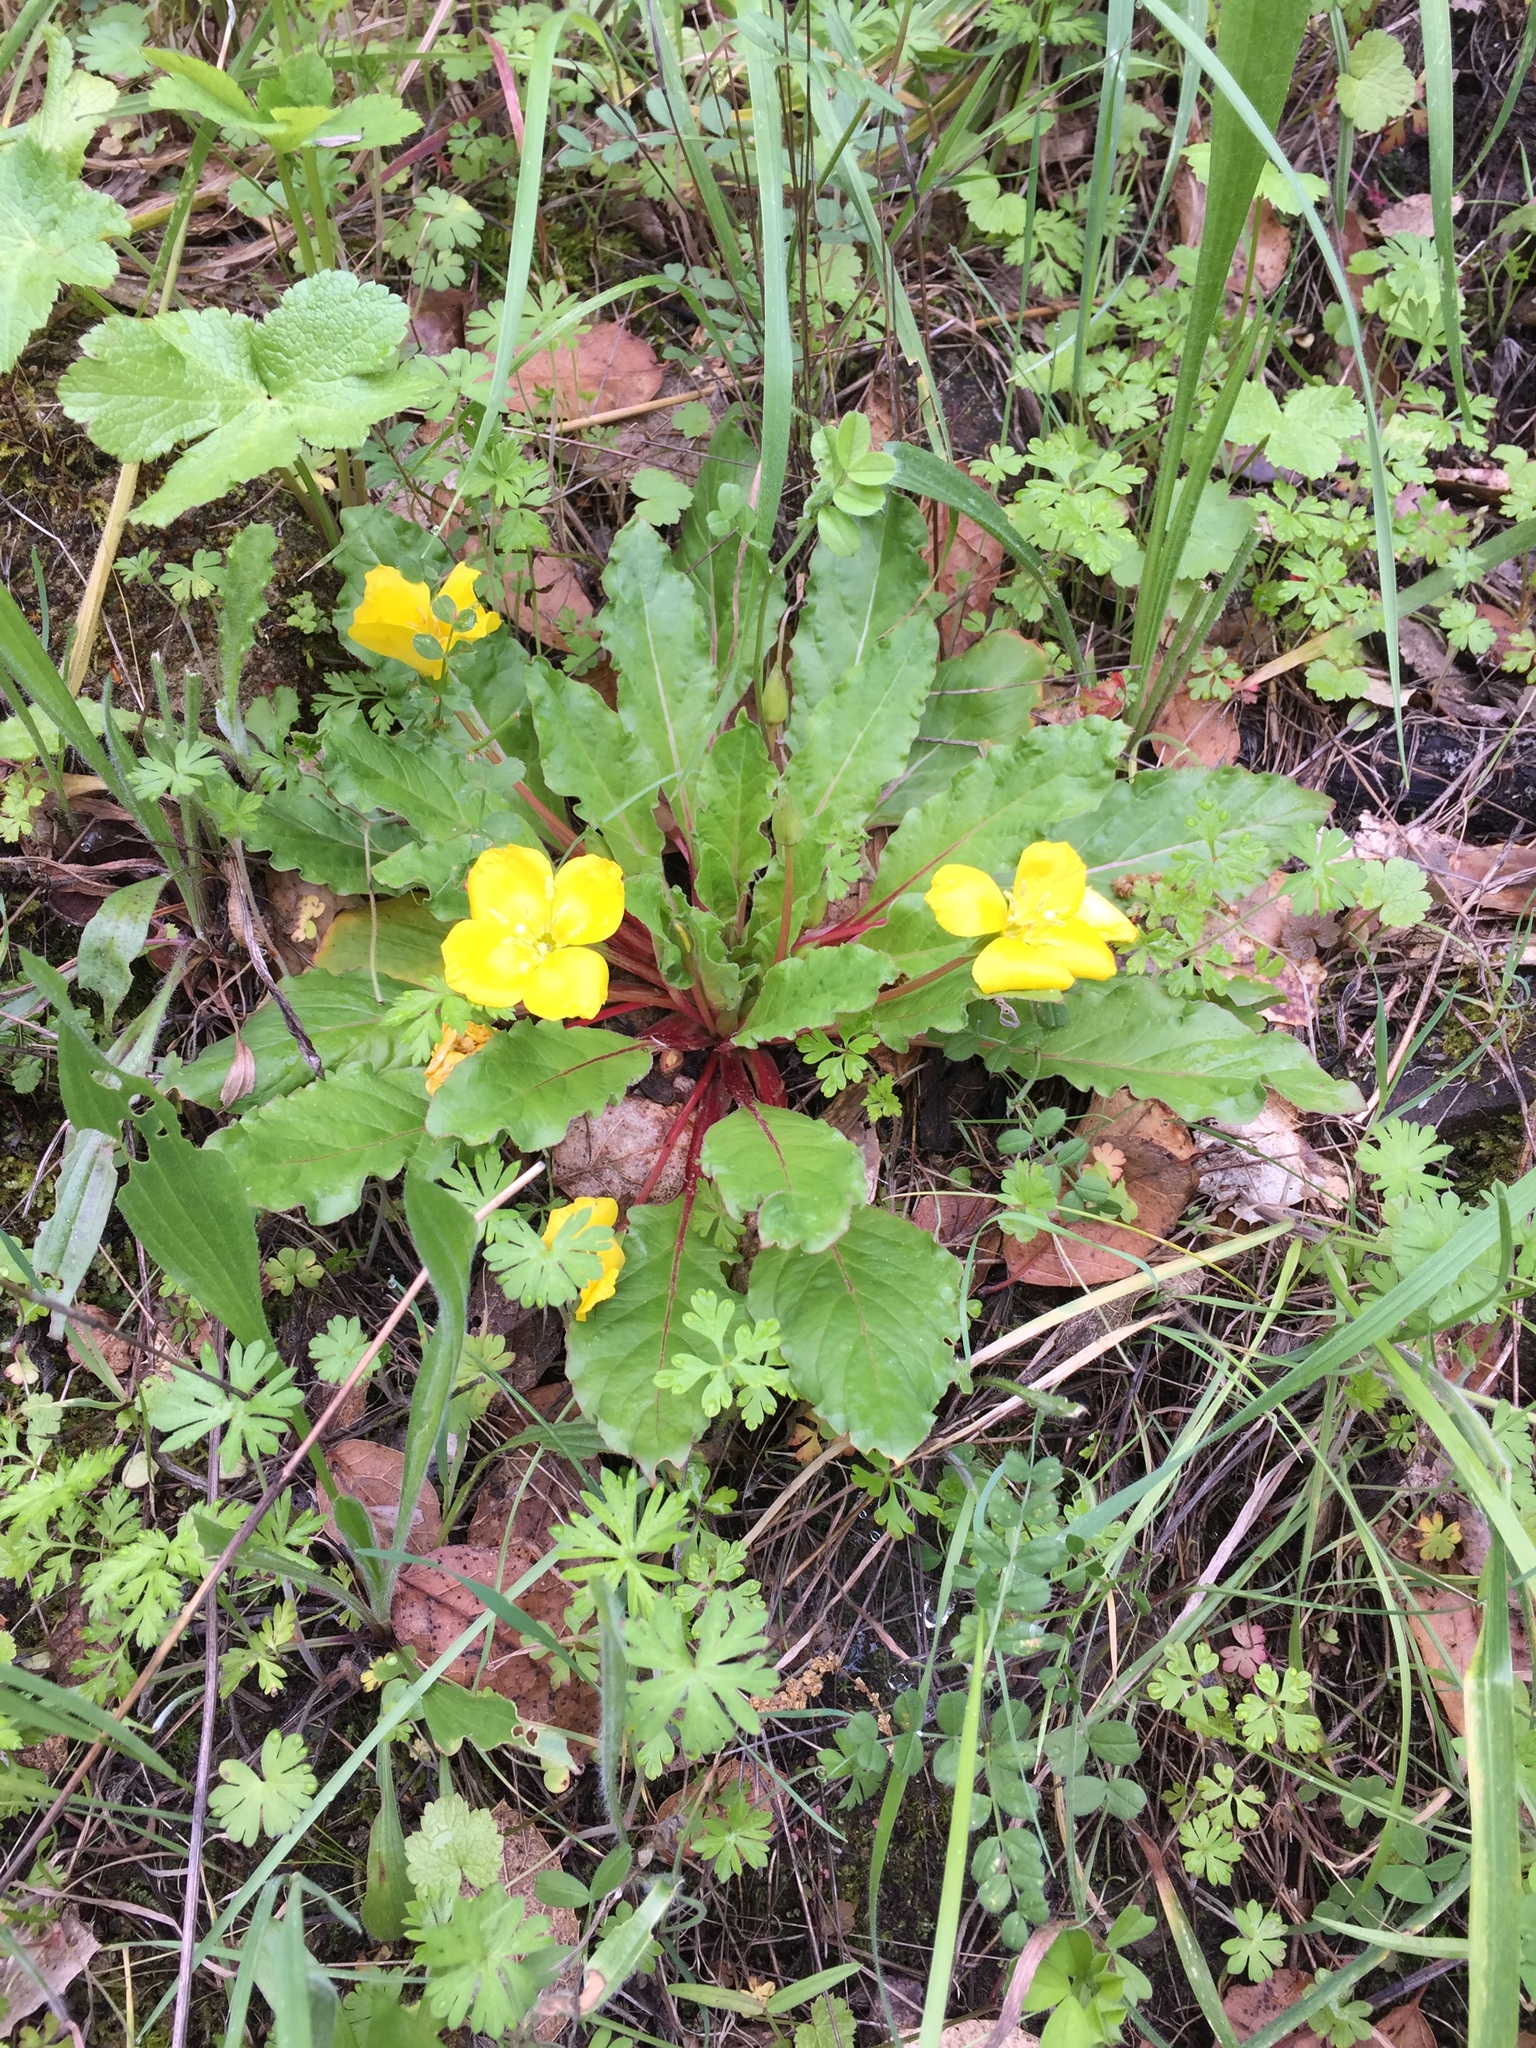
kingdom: Plantae
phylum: Tracheophyta
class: Magnoliopsida
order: Myrtales
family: Onagraceae
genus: Taraxia
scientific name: Taraxia ovata
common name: Goldeneggs
